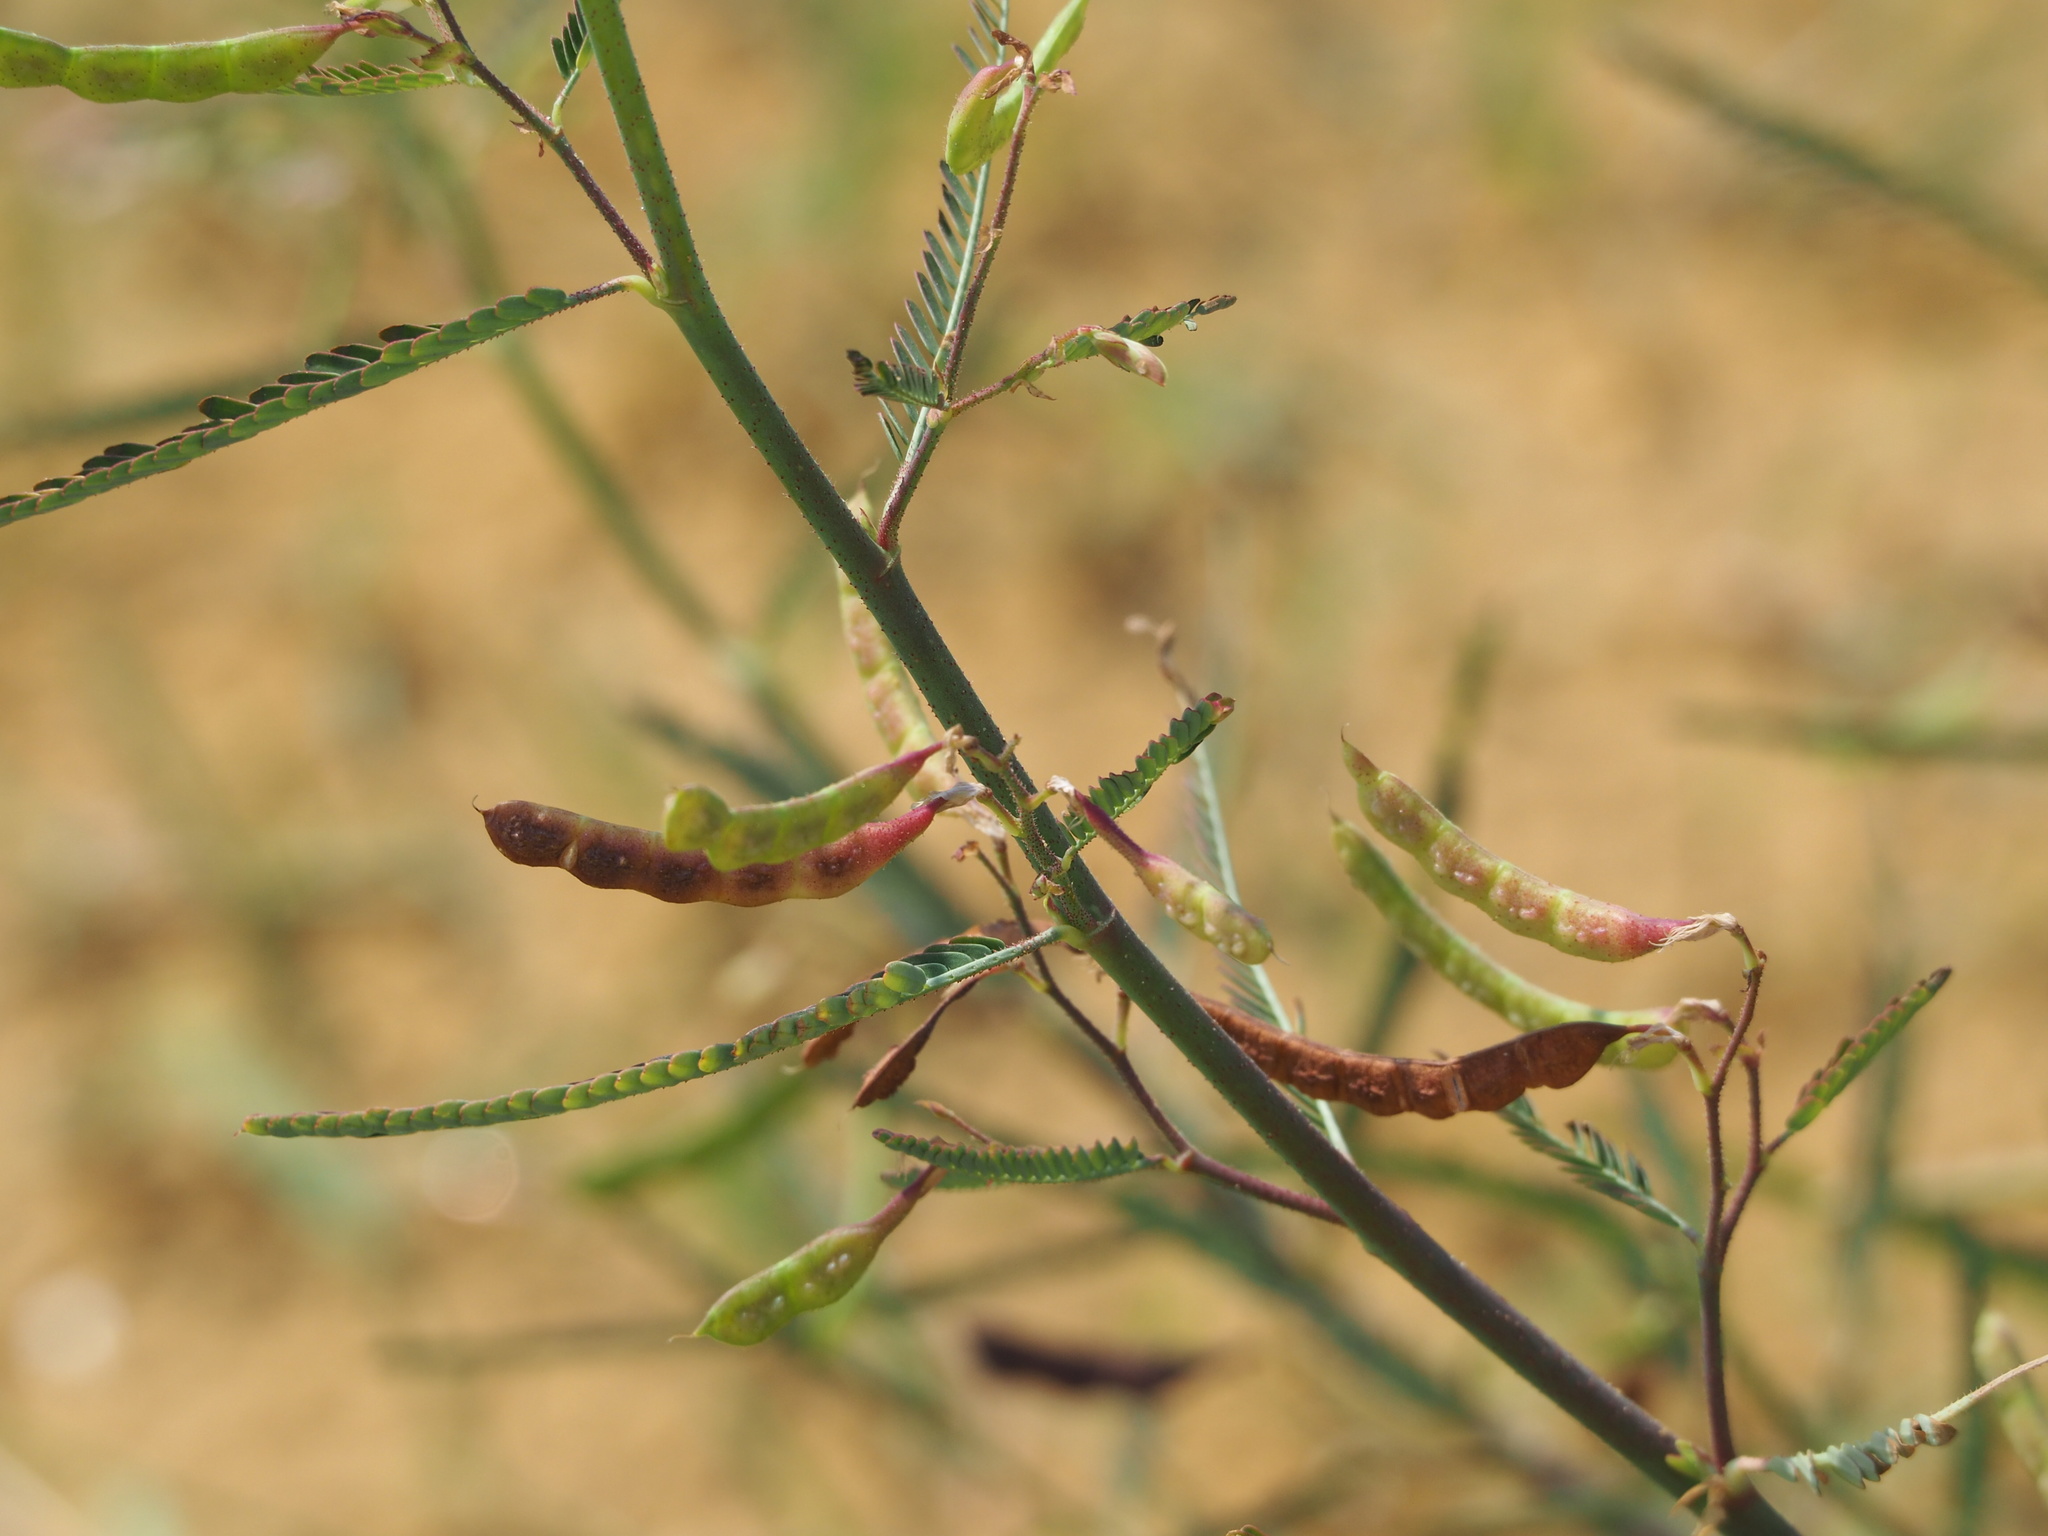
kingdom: Plantae
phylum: Tracheophyta
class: Magnoliopsida
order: Fabales
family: Fabaceae
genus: Aeschynomene
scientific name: Aeschynomene indica
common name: Indian jointvetch
